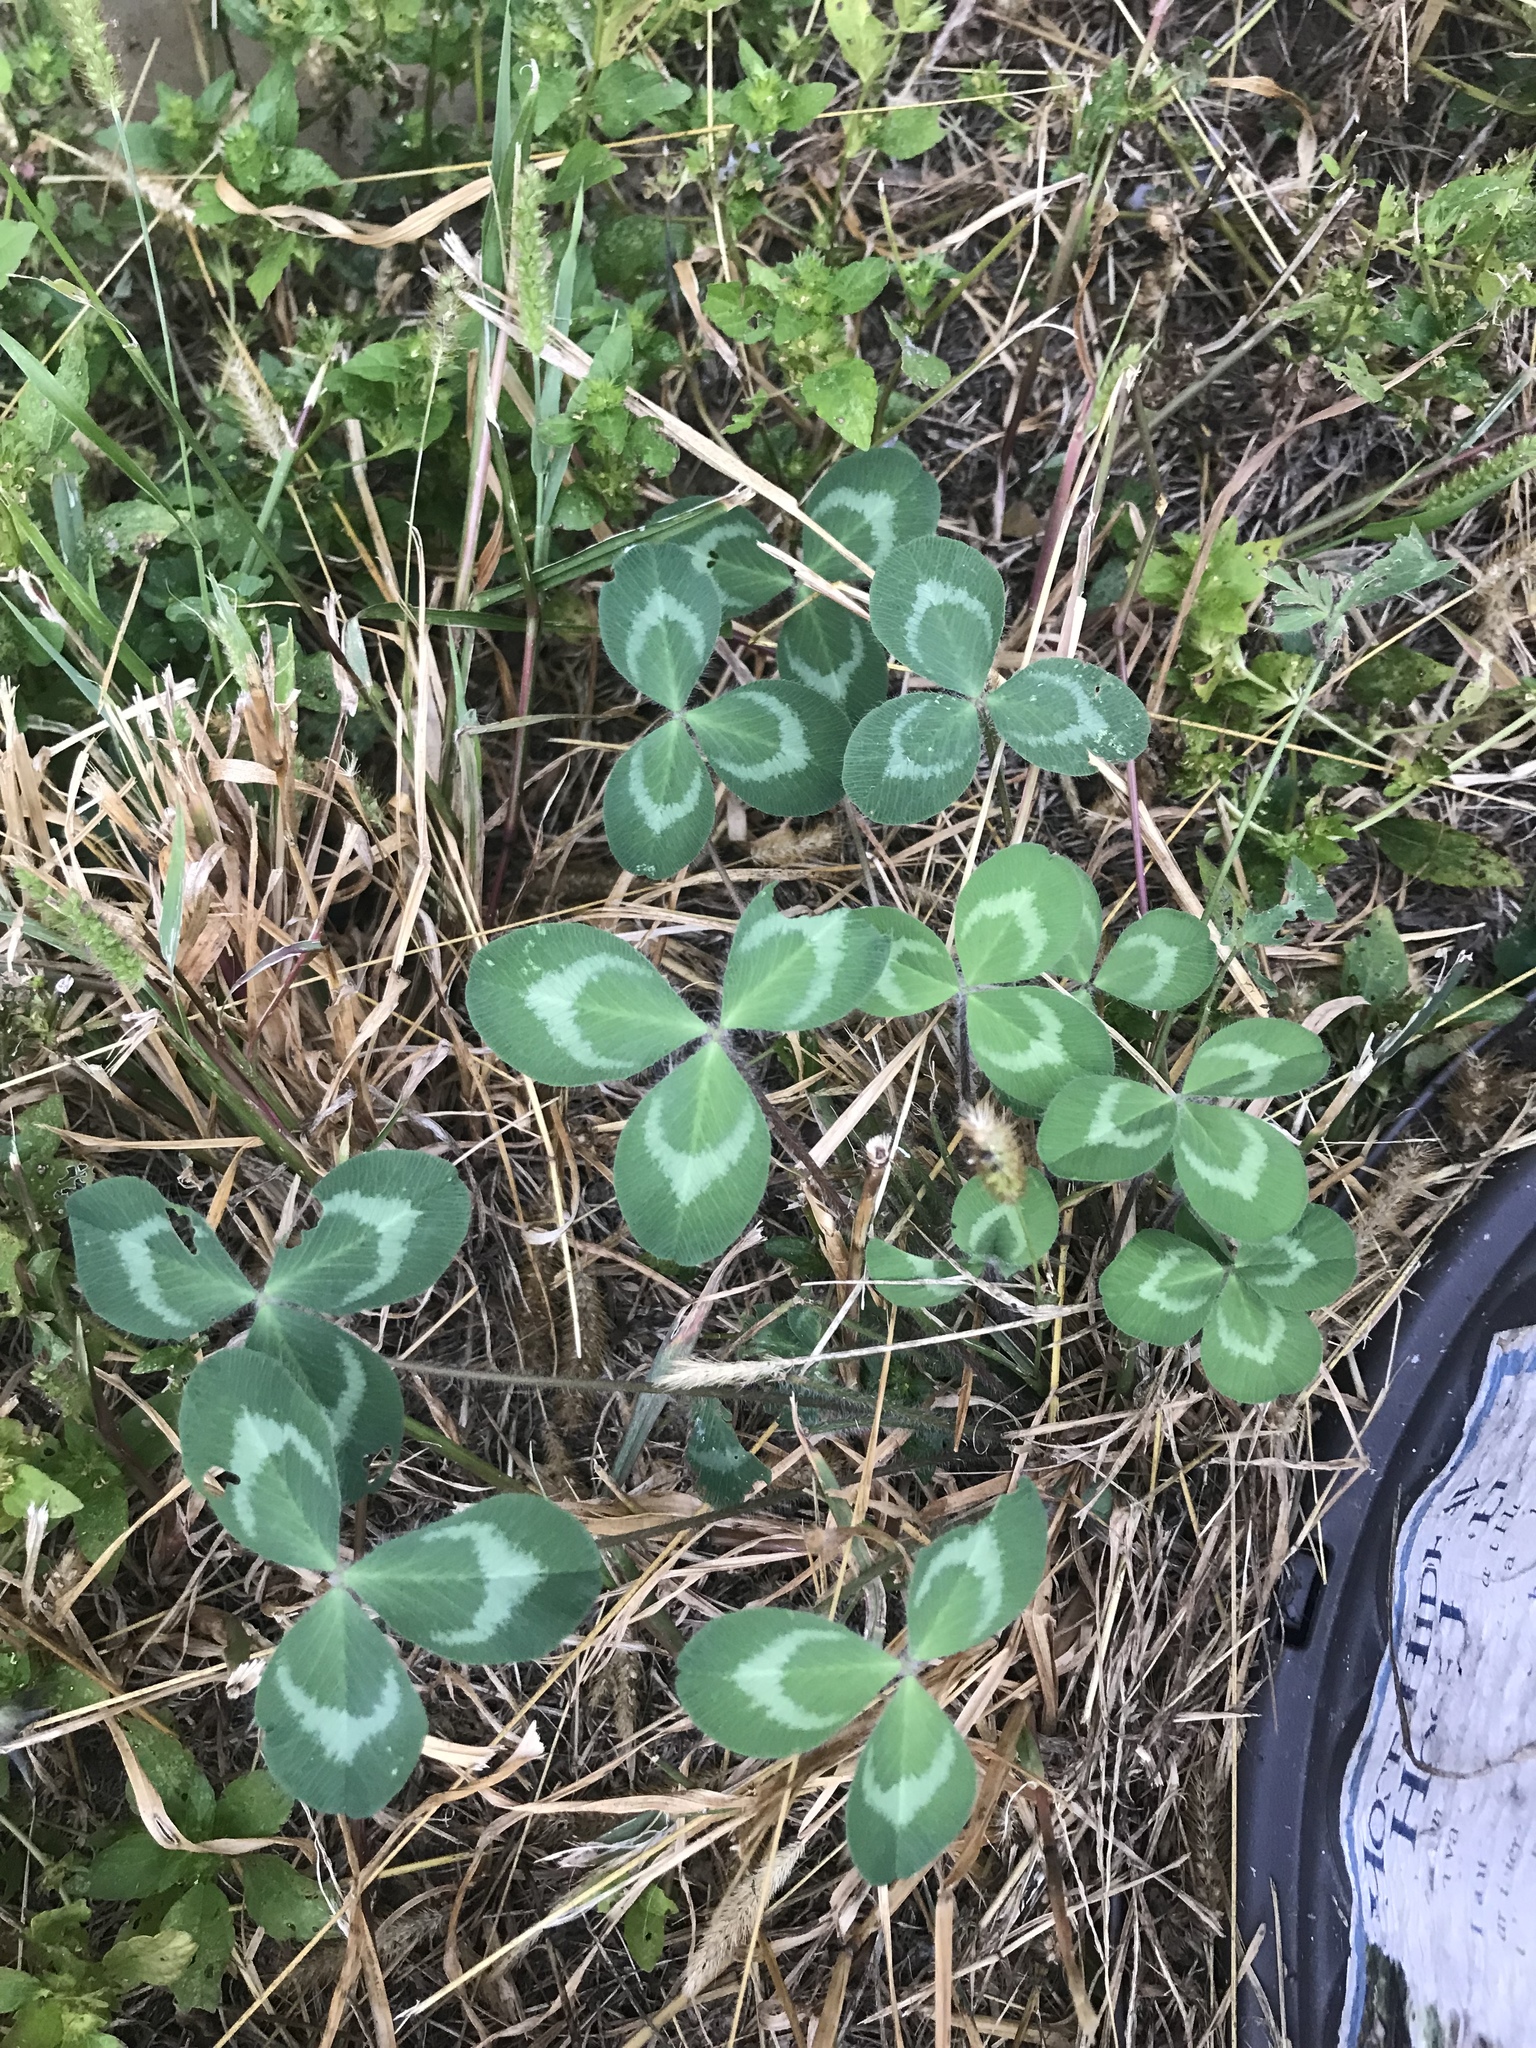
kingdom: Plantae
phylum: Tracheophyta
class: Magnoliopsida
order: Fabales
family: Fabaceae
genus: Trifolium
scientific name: Trifolium pratense
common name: Red clover
